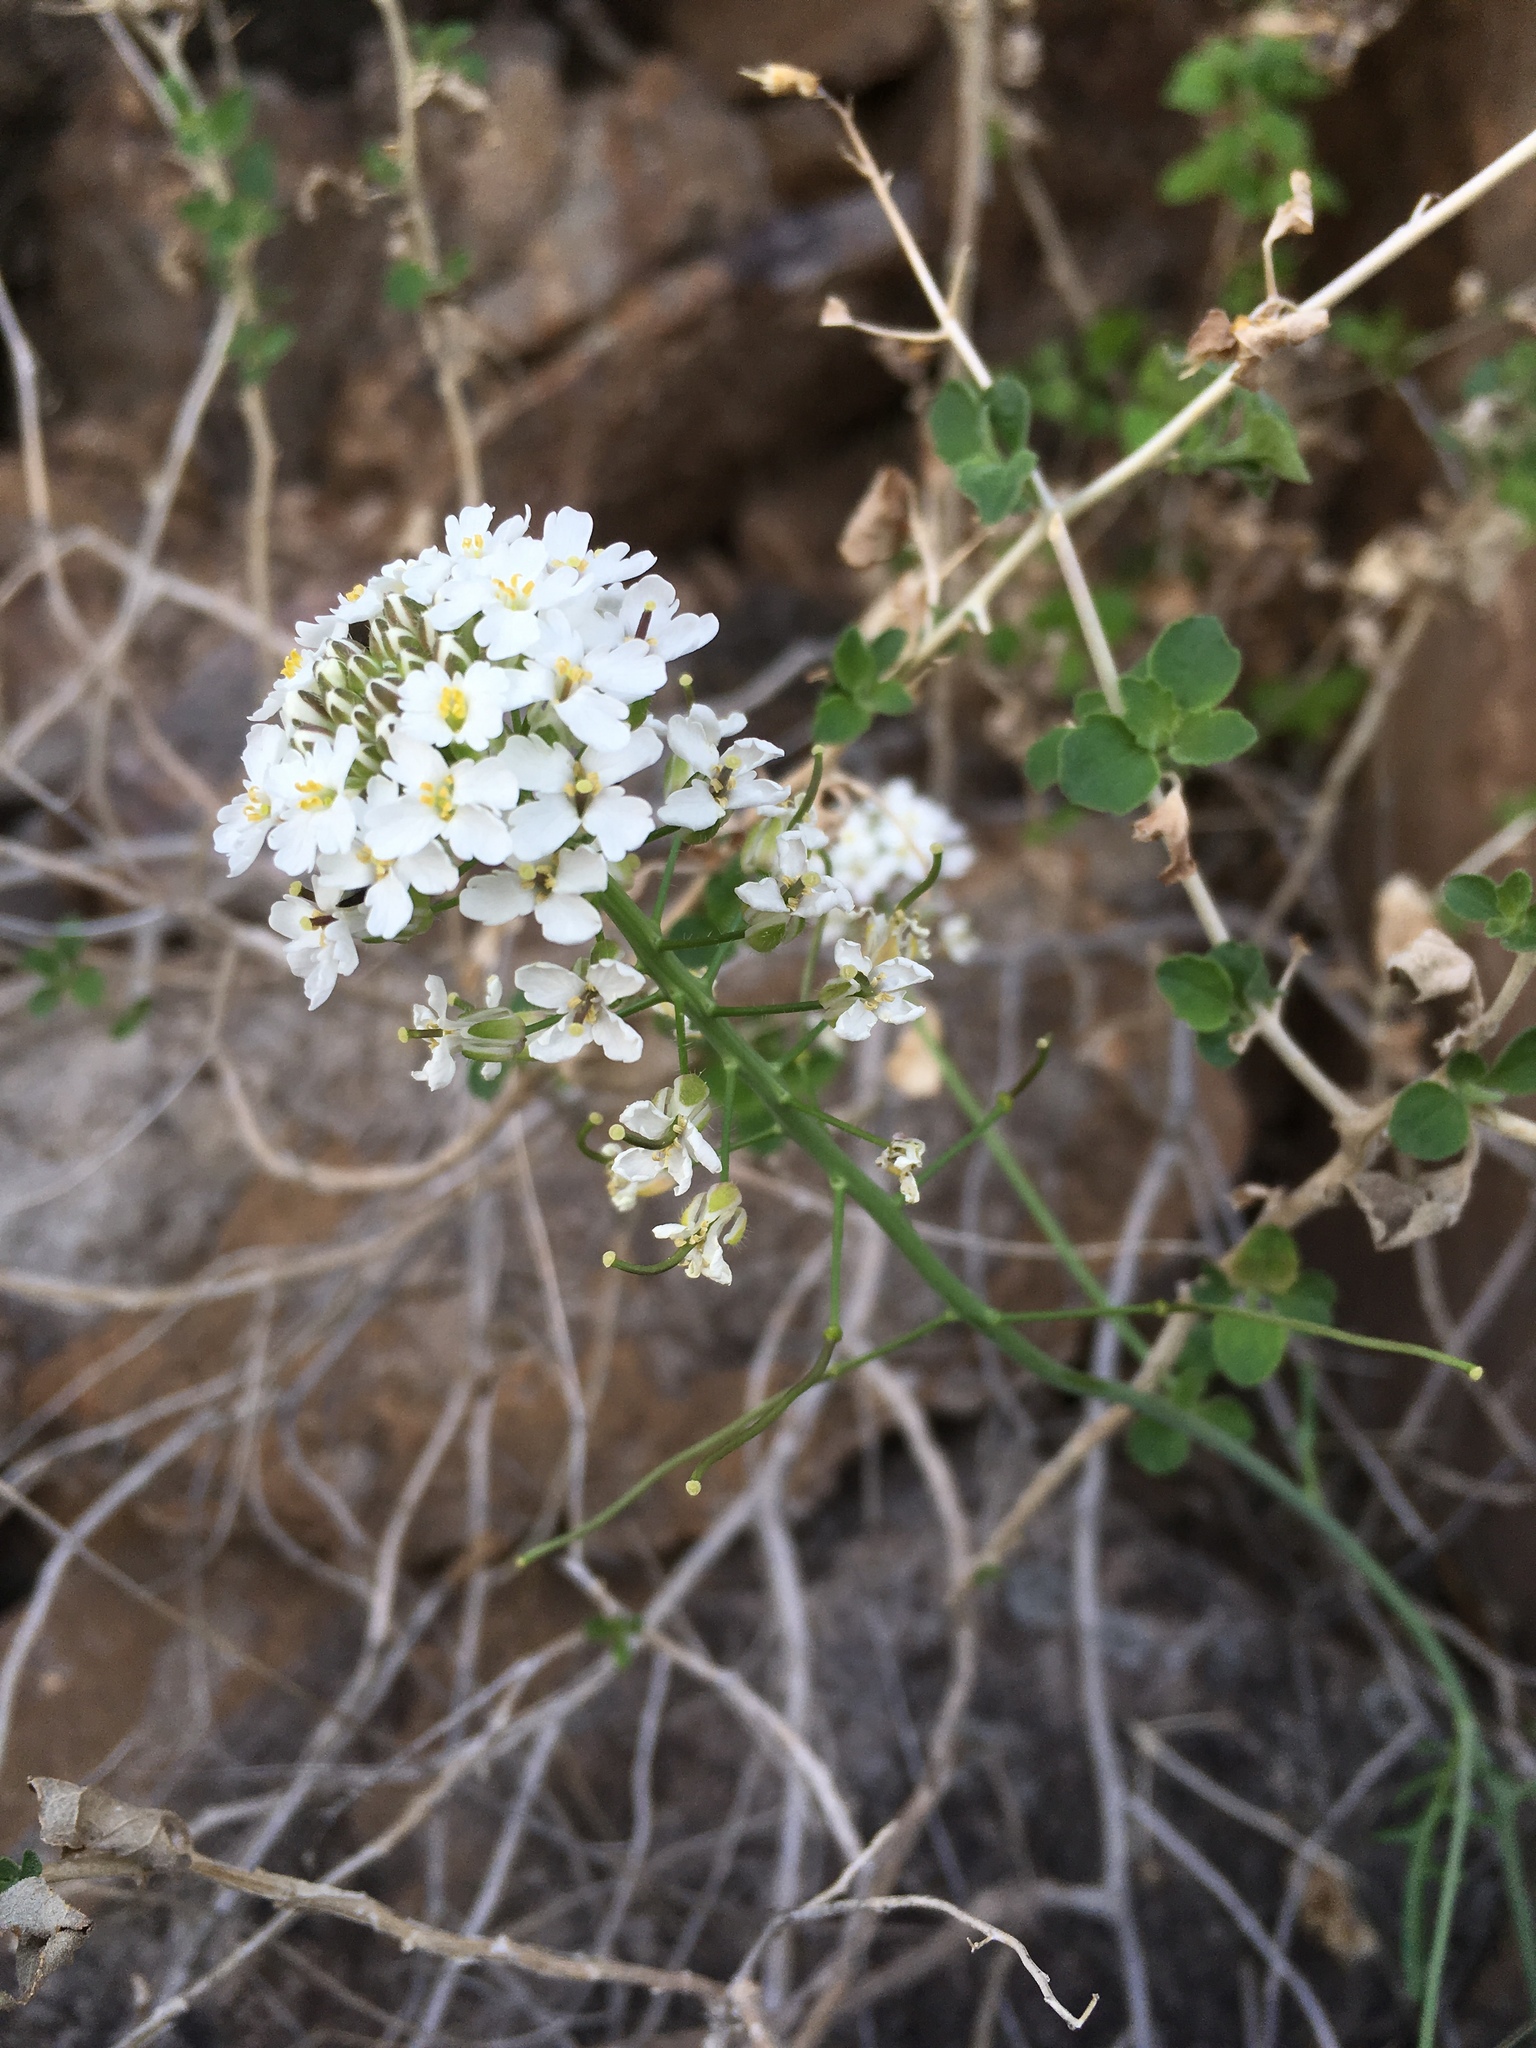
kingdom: Plantae
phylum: Tracheophyta
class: Magnoliopsida
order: Brassicales
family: Brassicaceae
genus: Dryopetalon
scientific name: Dryopetalon runcinatum
